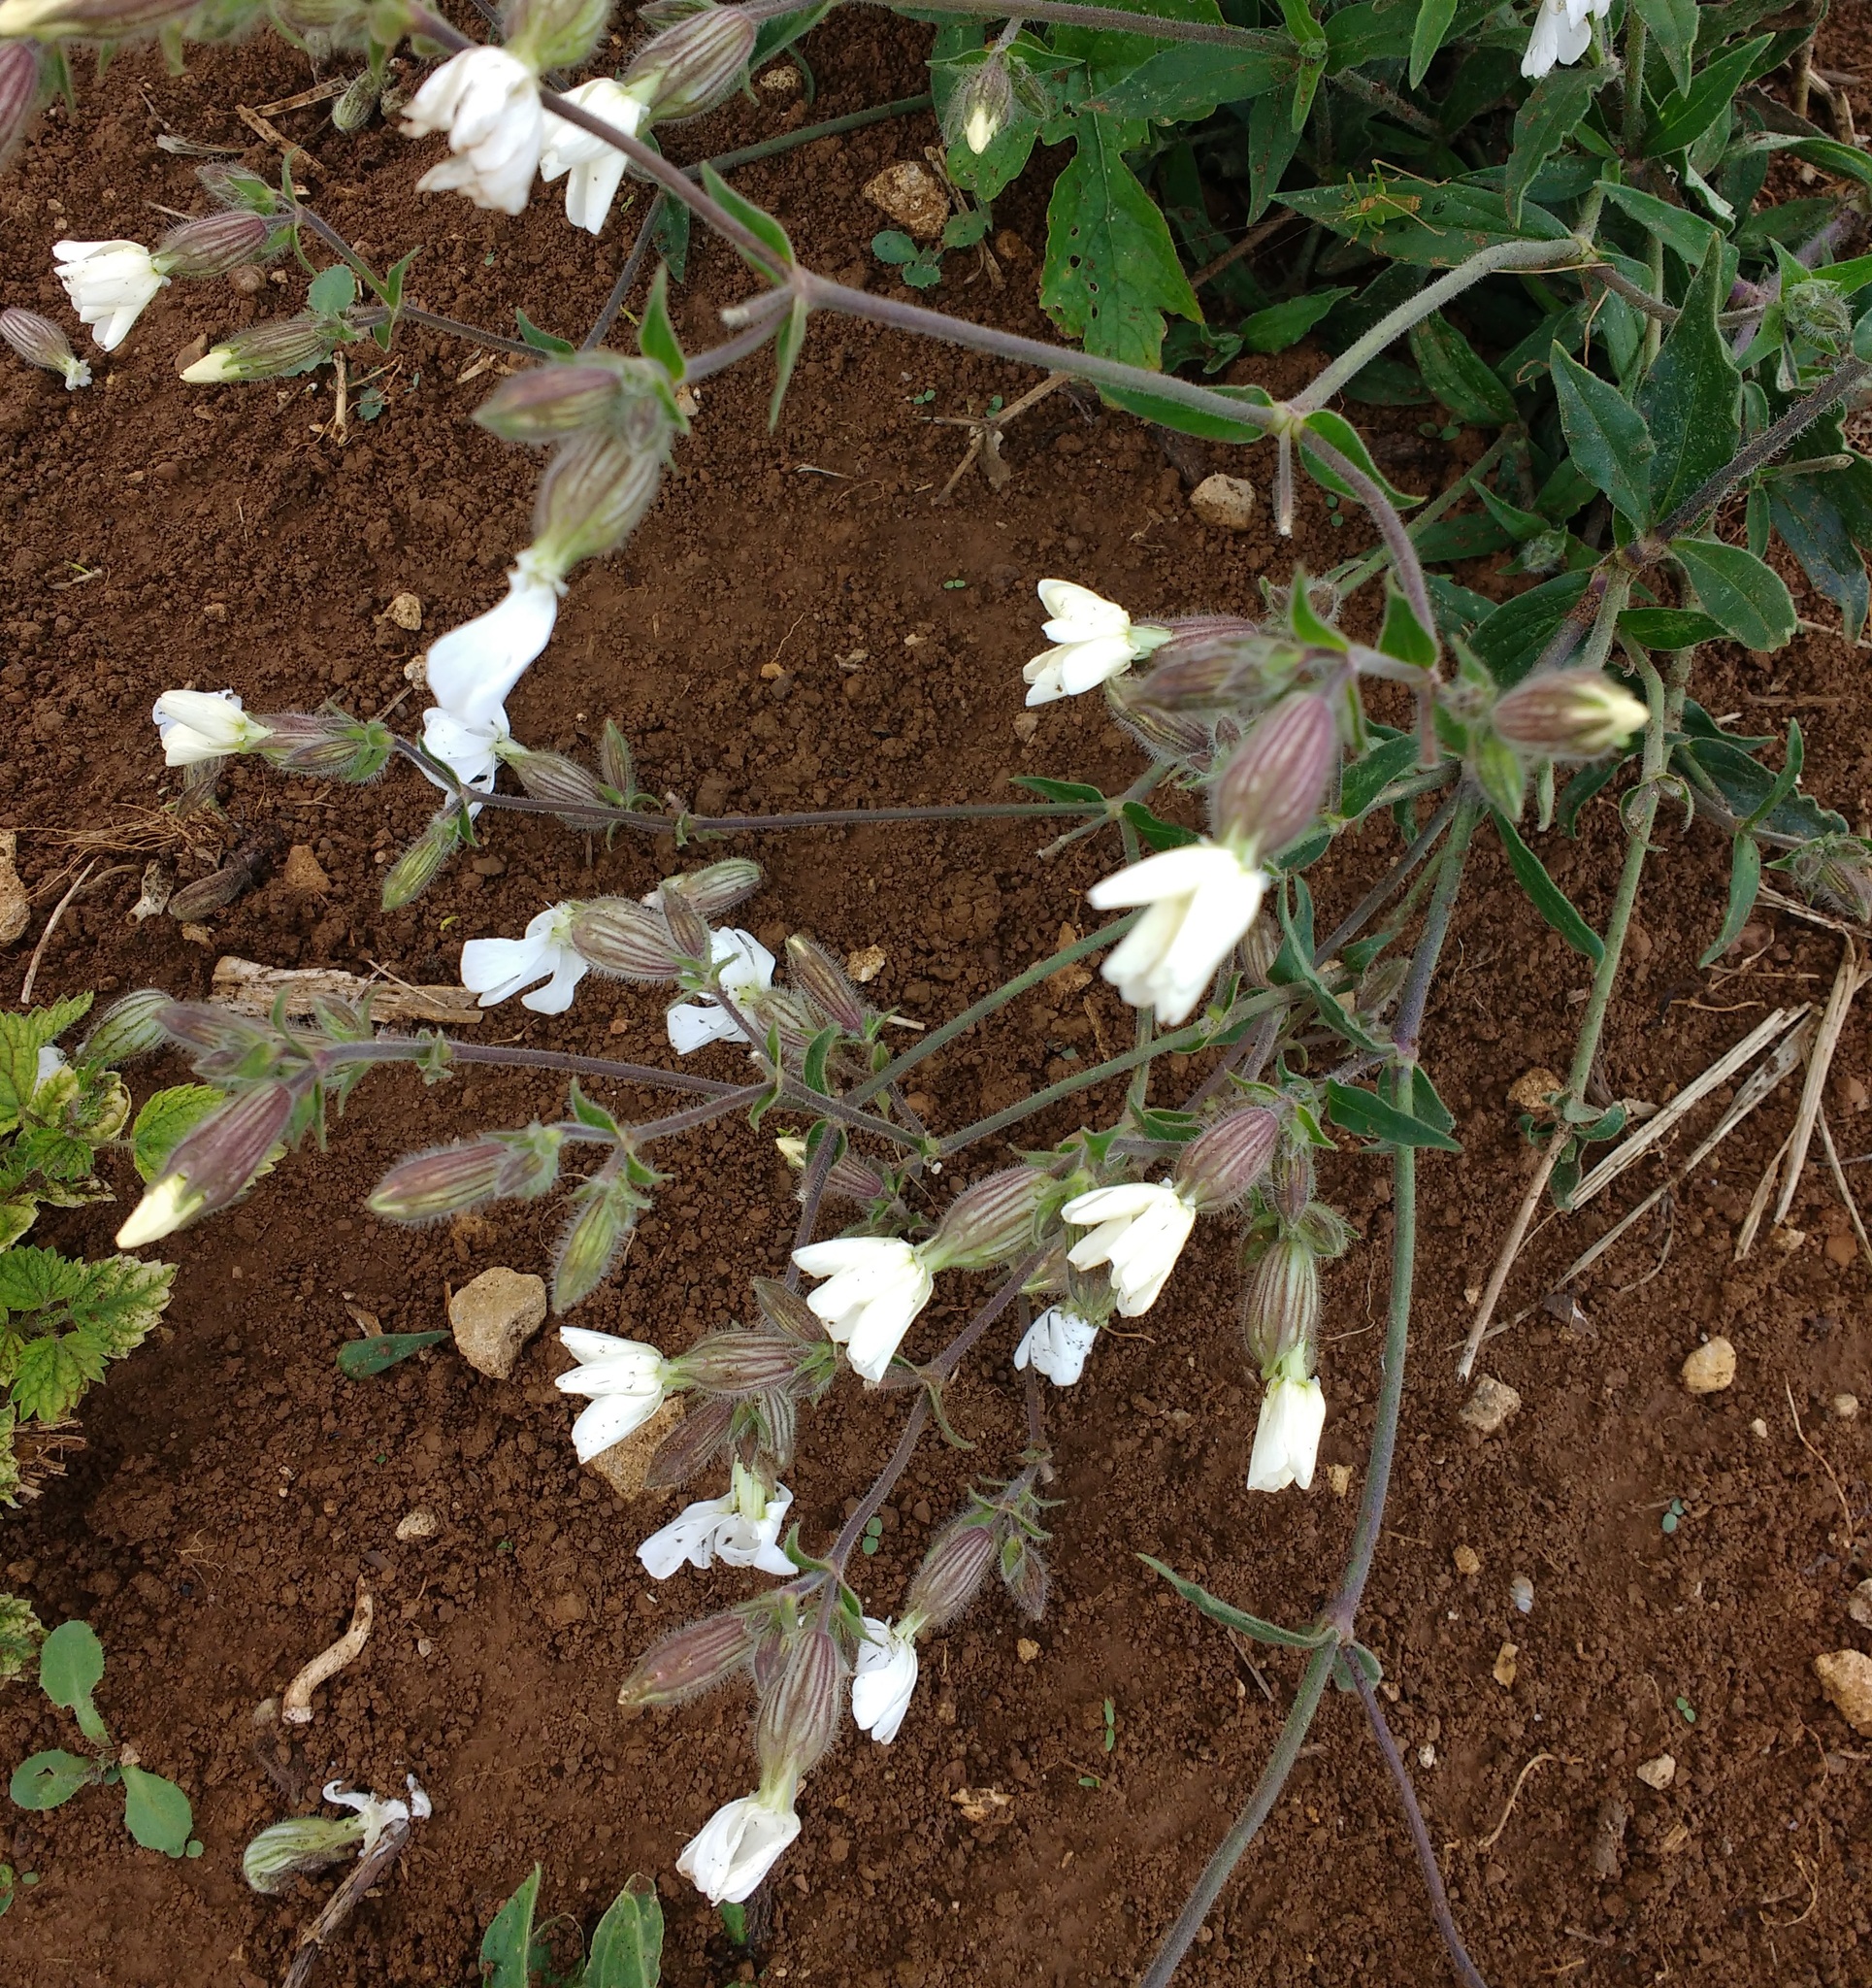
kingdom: Plantae
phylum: Tracheophyta
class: Magnoliopsida
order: Caryophyllales
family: Caryophyllaceae
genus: Silene
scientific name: Silene latifolia
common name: White campion
